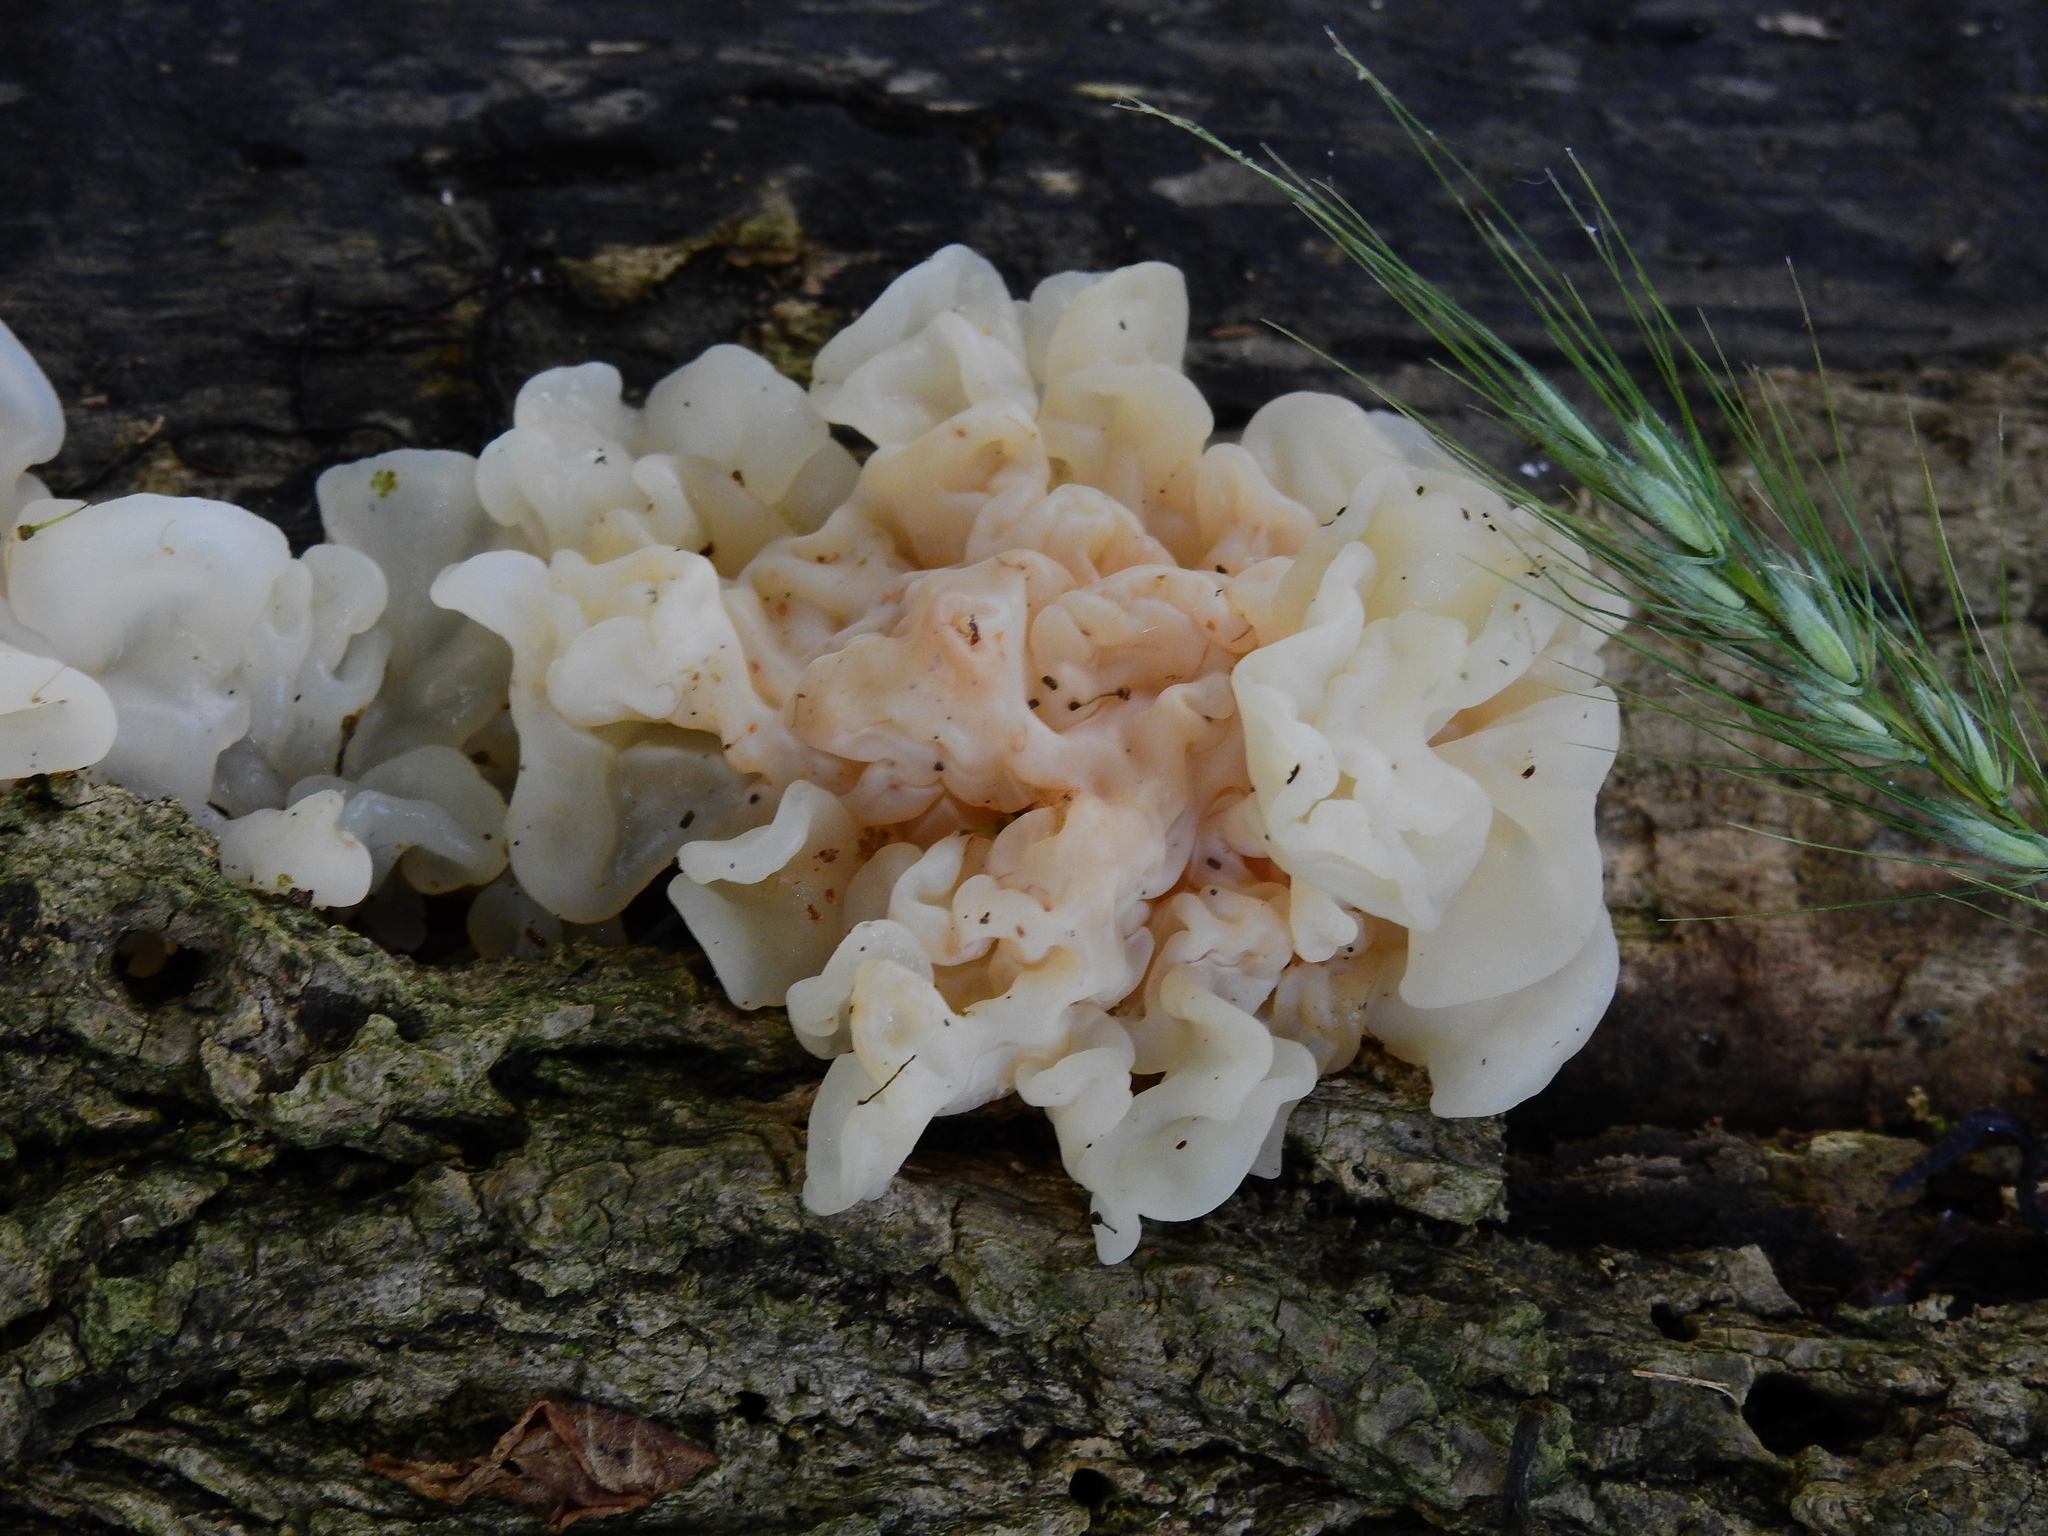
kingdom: Fungi
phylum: Basidiomycota
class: Agaricomycetes
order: Auriculariales
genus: Ductifera
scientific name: Ductifera pululahuana
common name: White jelly fungus
